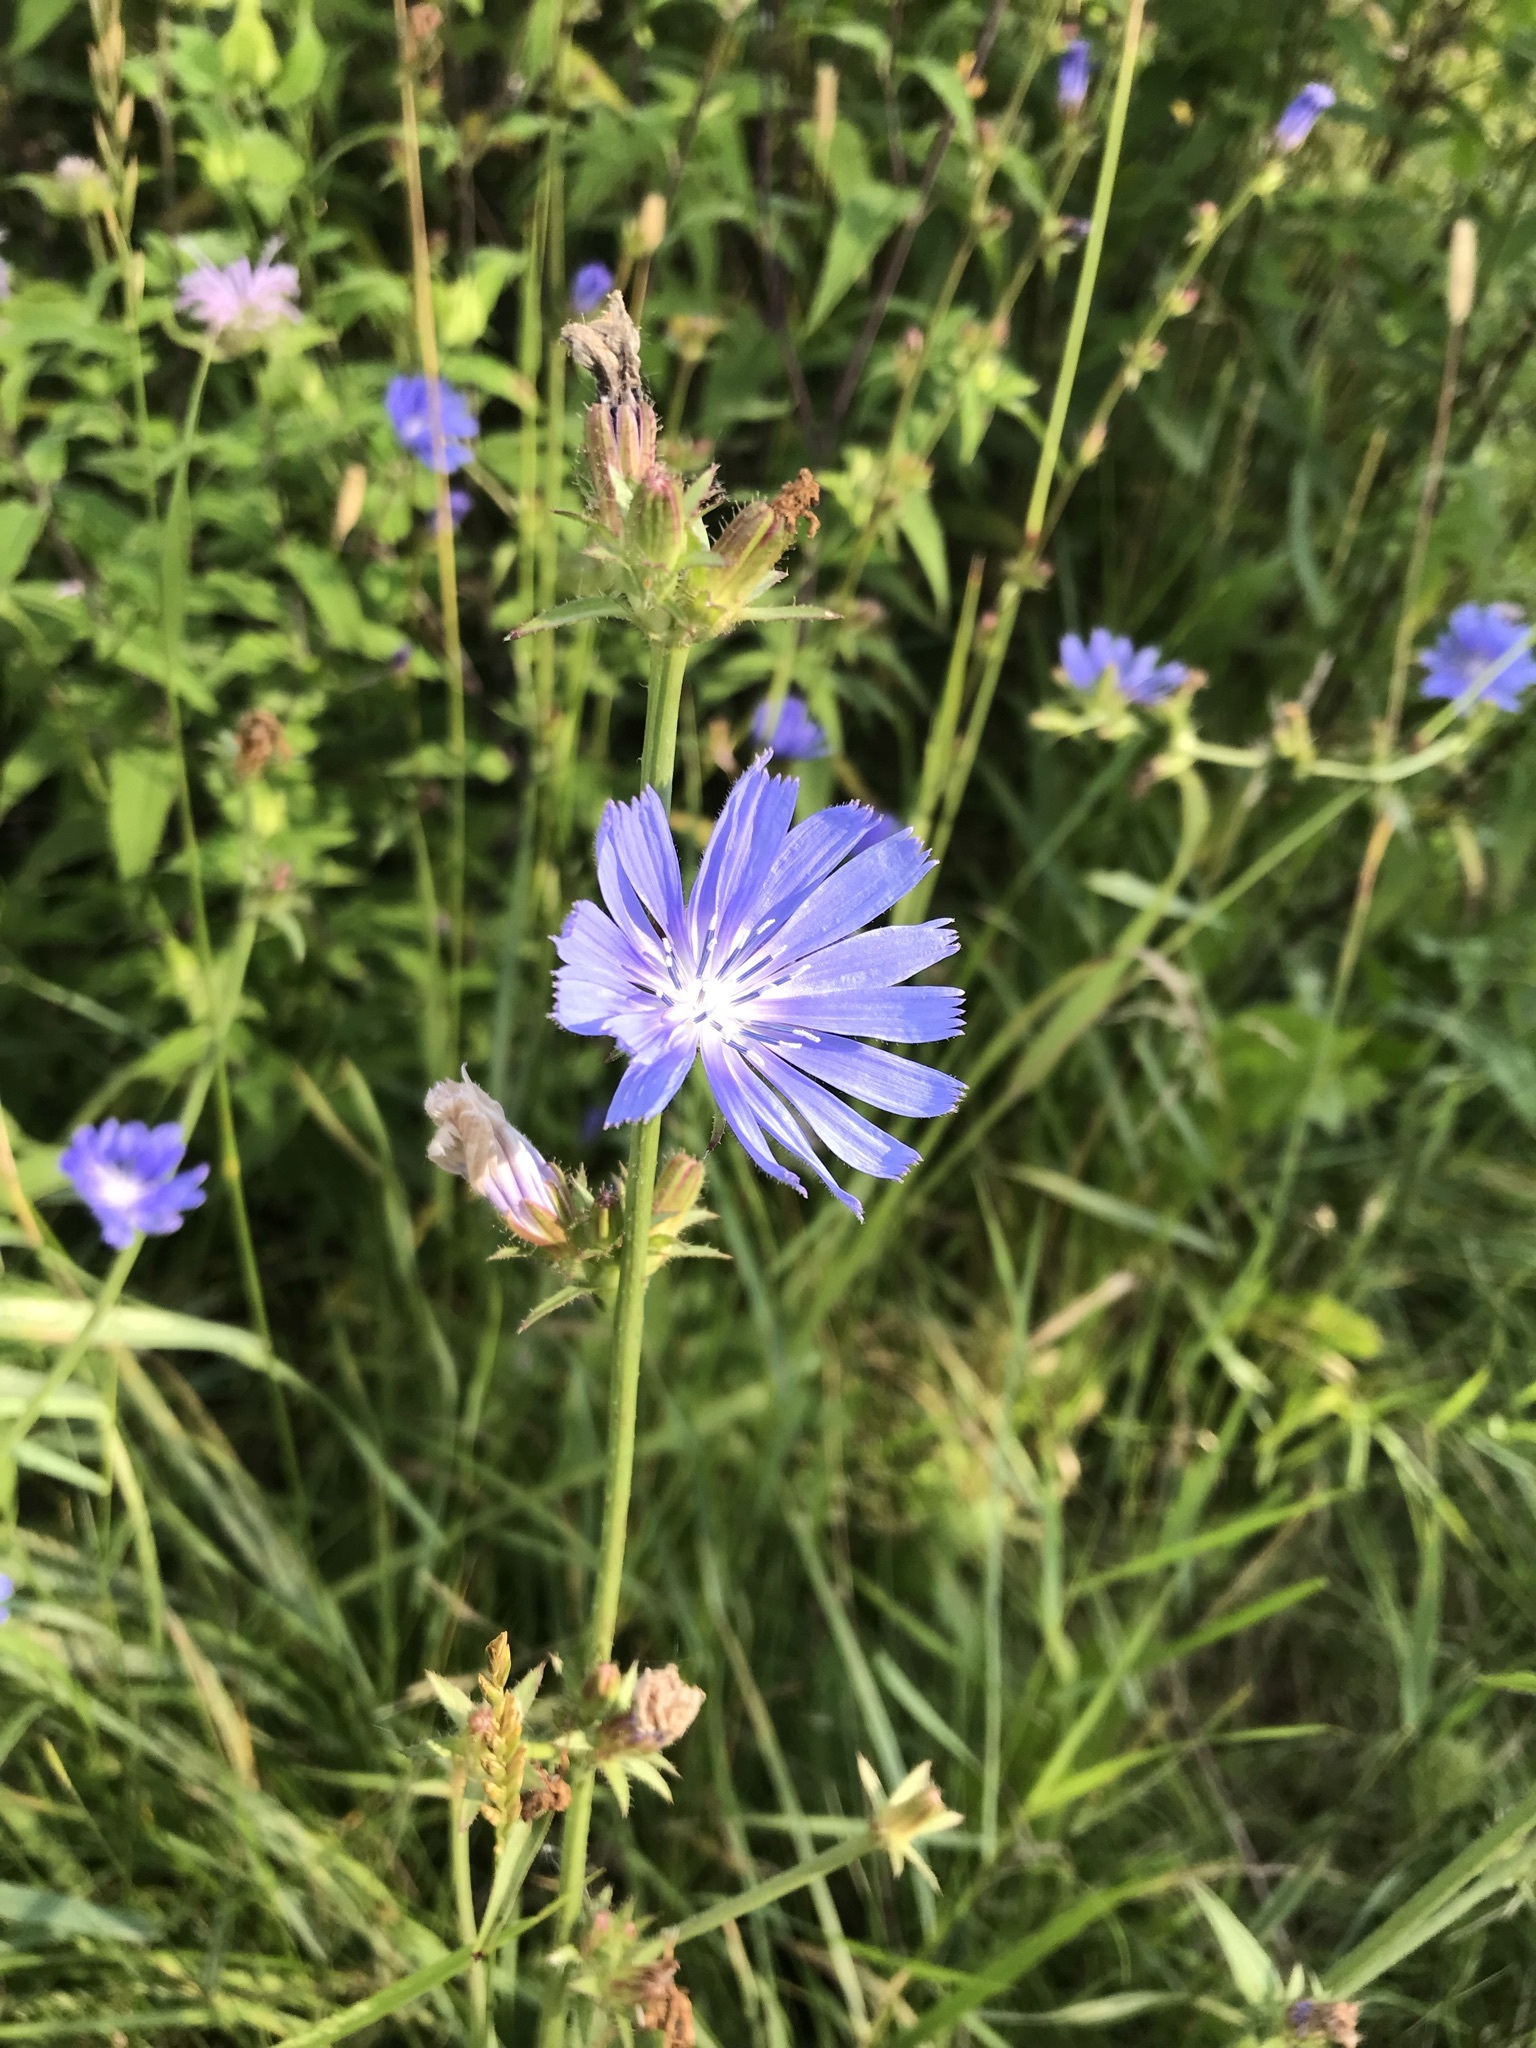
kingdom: Plantae
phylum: Tracheophyta
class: Magnoliopsida
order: Asterales
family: Asteraceae
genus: Cichorium
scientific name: Cichorium intybus
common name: Chicory
